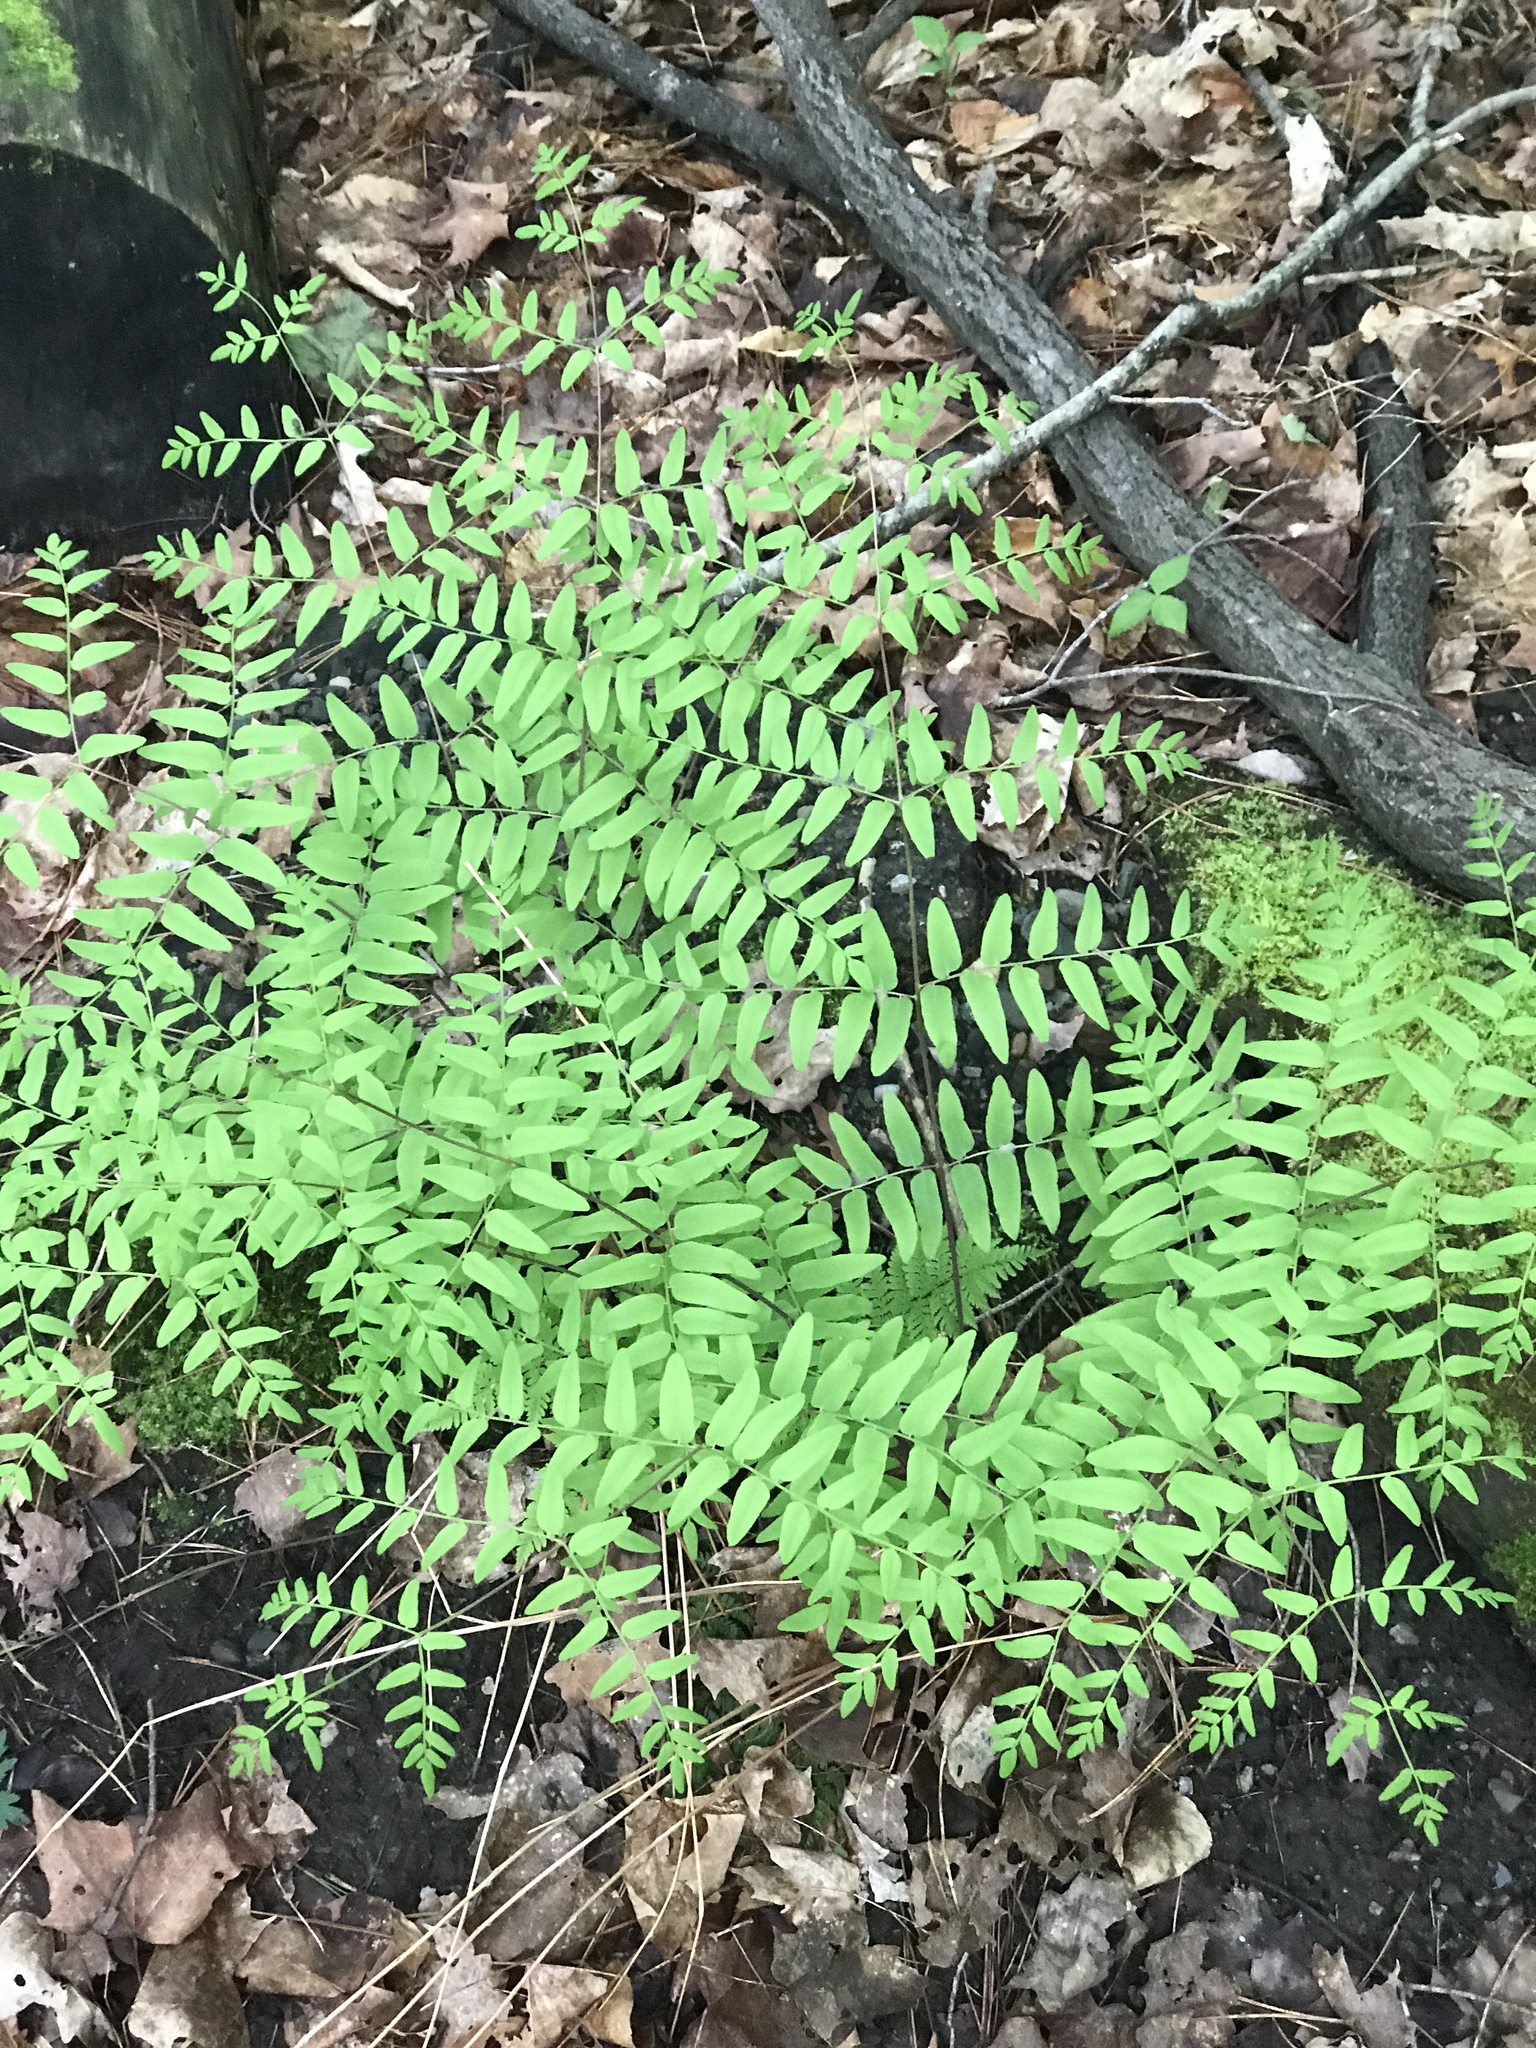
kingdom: Plantae
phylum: Tracheophyta
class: Polypodiopsida
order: Osmundales
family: Osmundaceae
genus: Osmunda
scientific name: Osmunda spectabilis
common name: American royal fern
